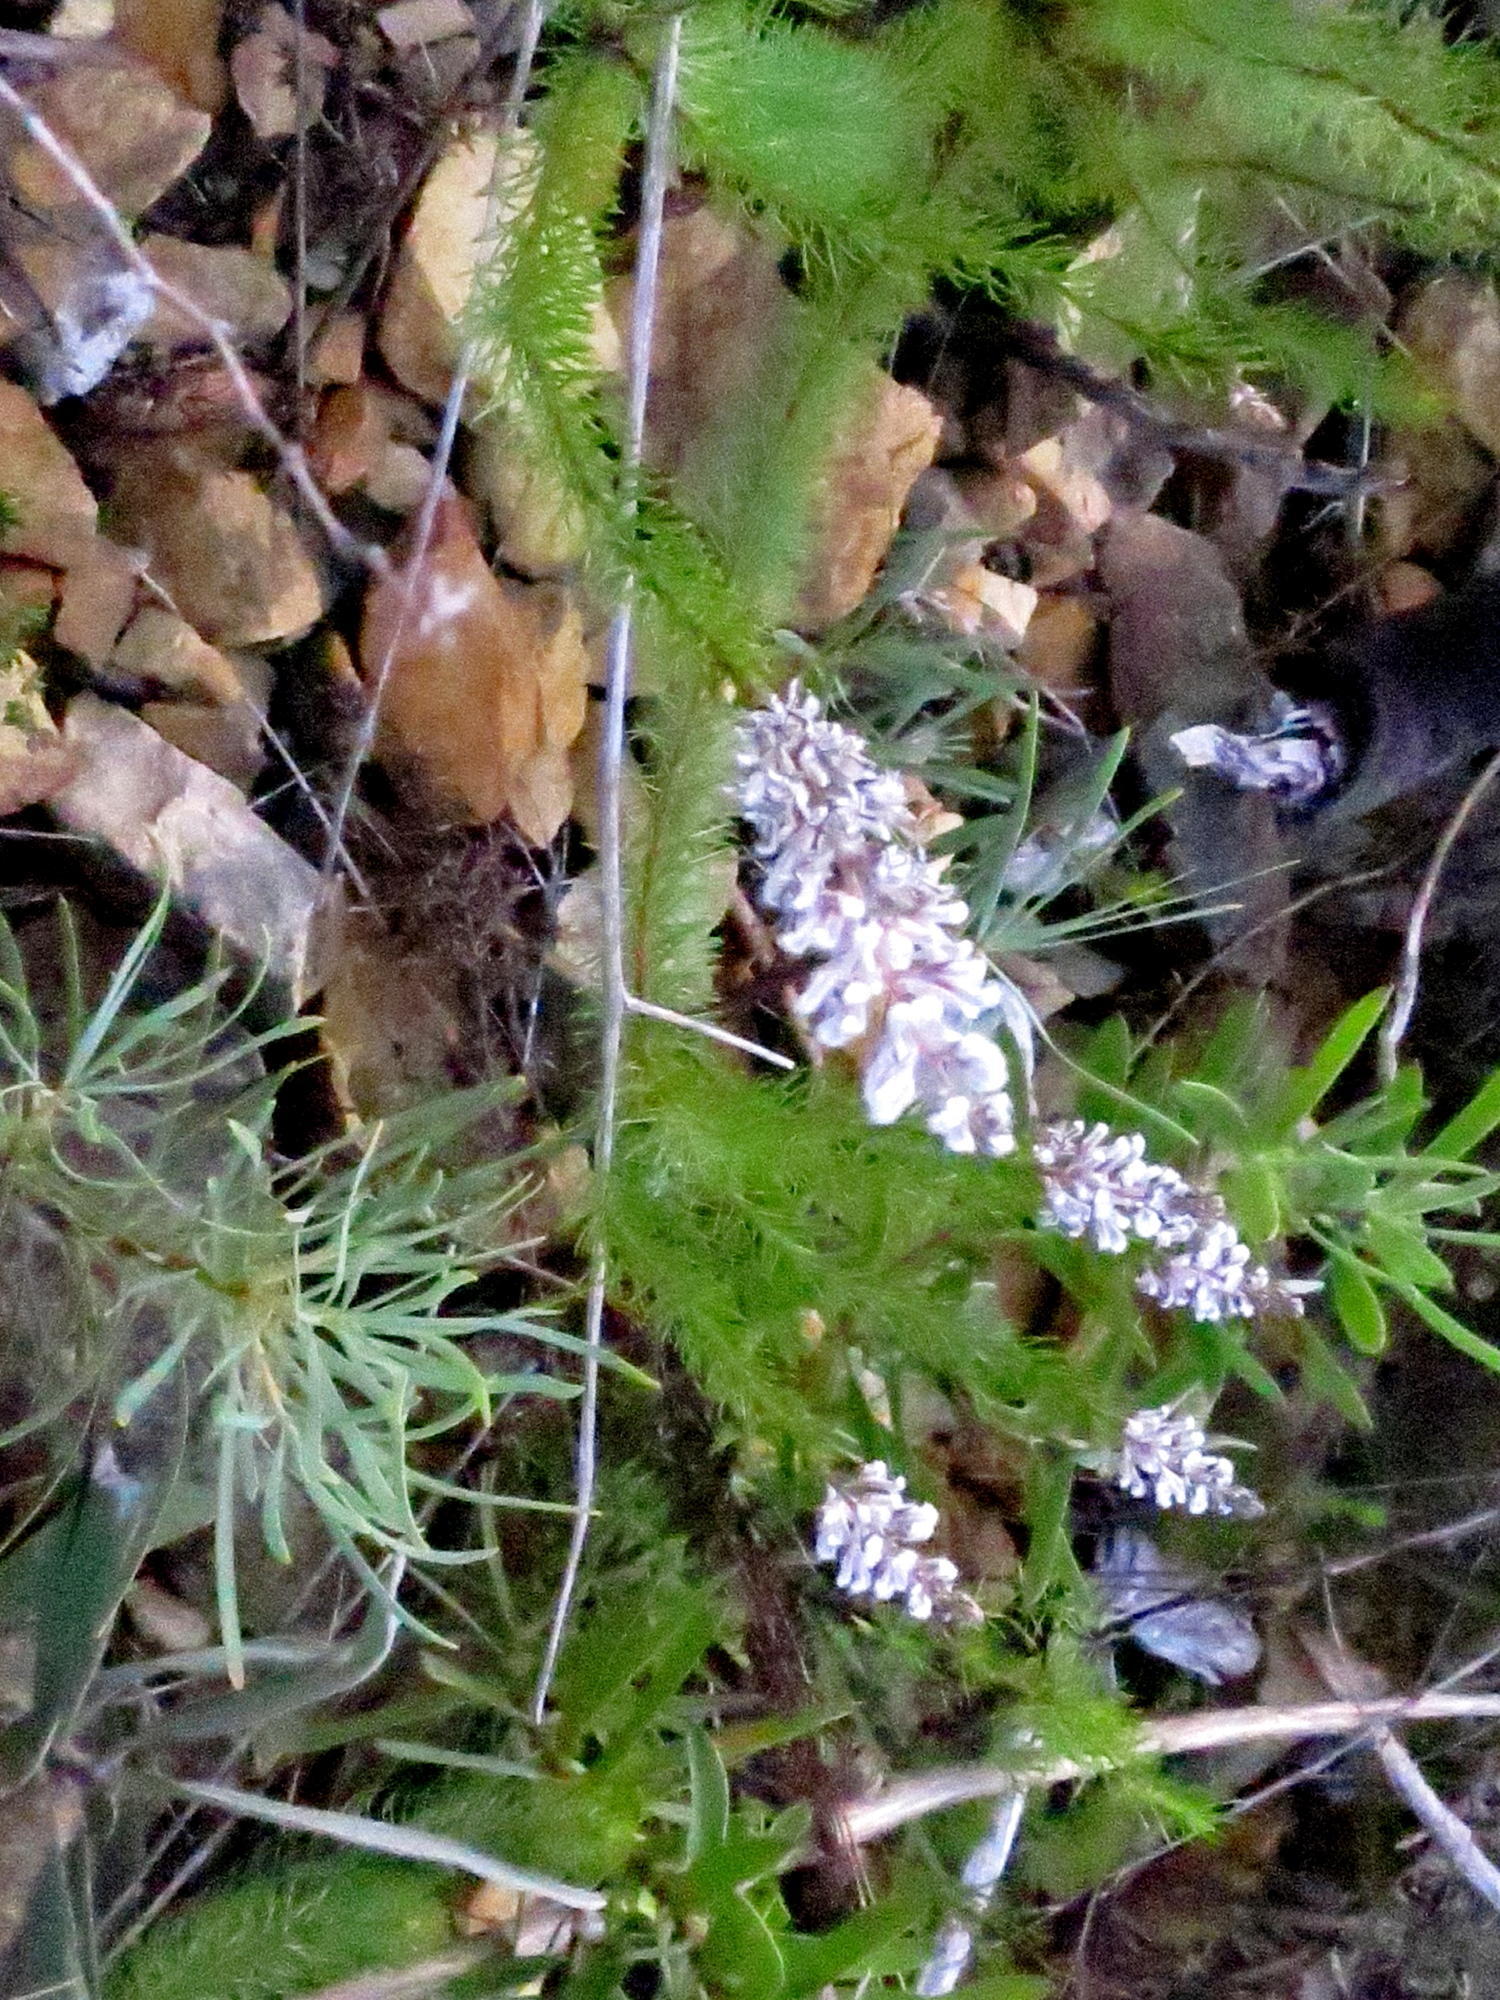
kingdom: Plantae
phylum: Tracheophyta
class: Magnoliopsida
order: Proteales
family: Proteaceae
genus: Spatalla
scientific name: Spatalla propinqua
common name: Lax spoon
